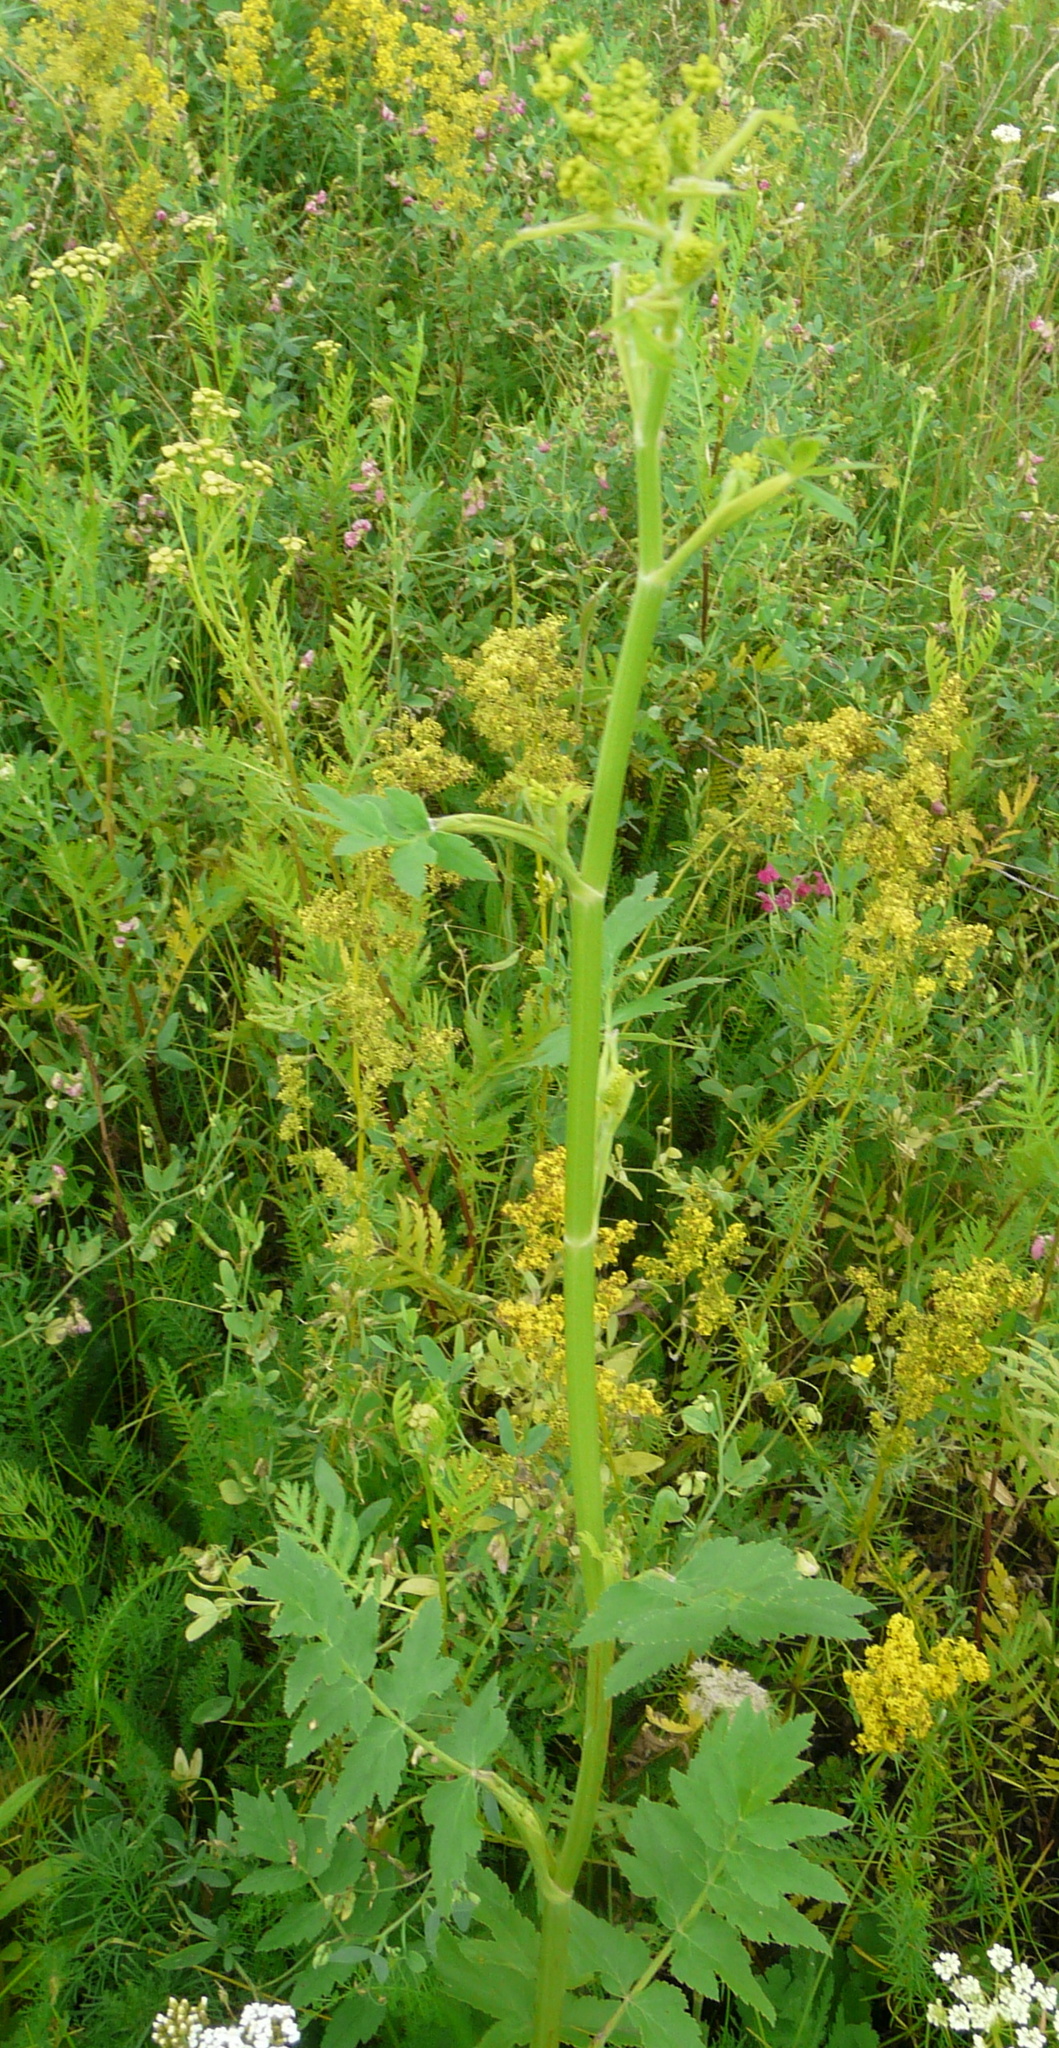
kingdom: Plantae
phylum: Tracheophyta
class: Magnoliopsida
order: Apiales
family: Apiaceae
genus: Pastinaca
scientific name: Pastinaca sativa
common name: Wild parsnip
